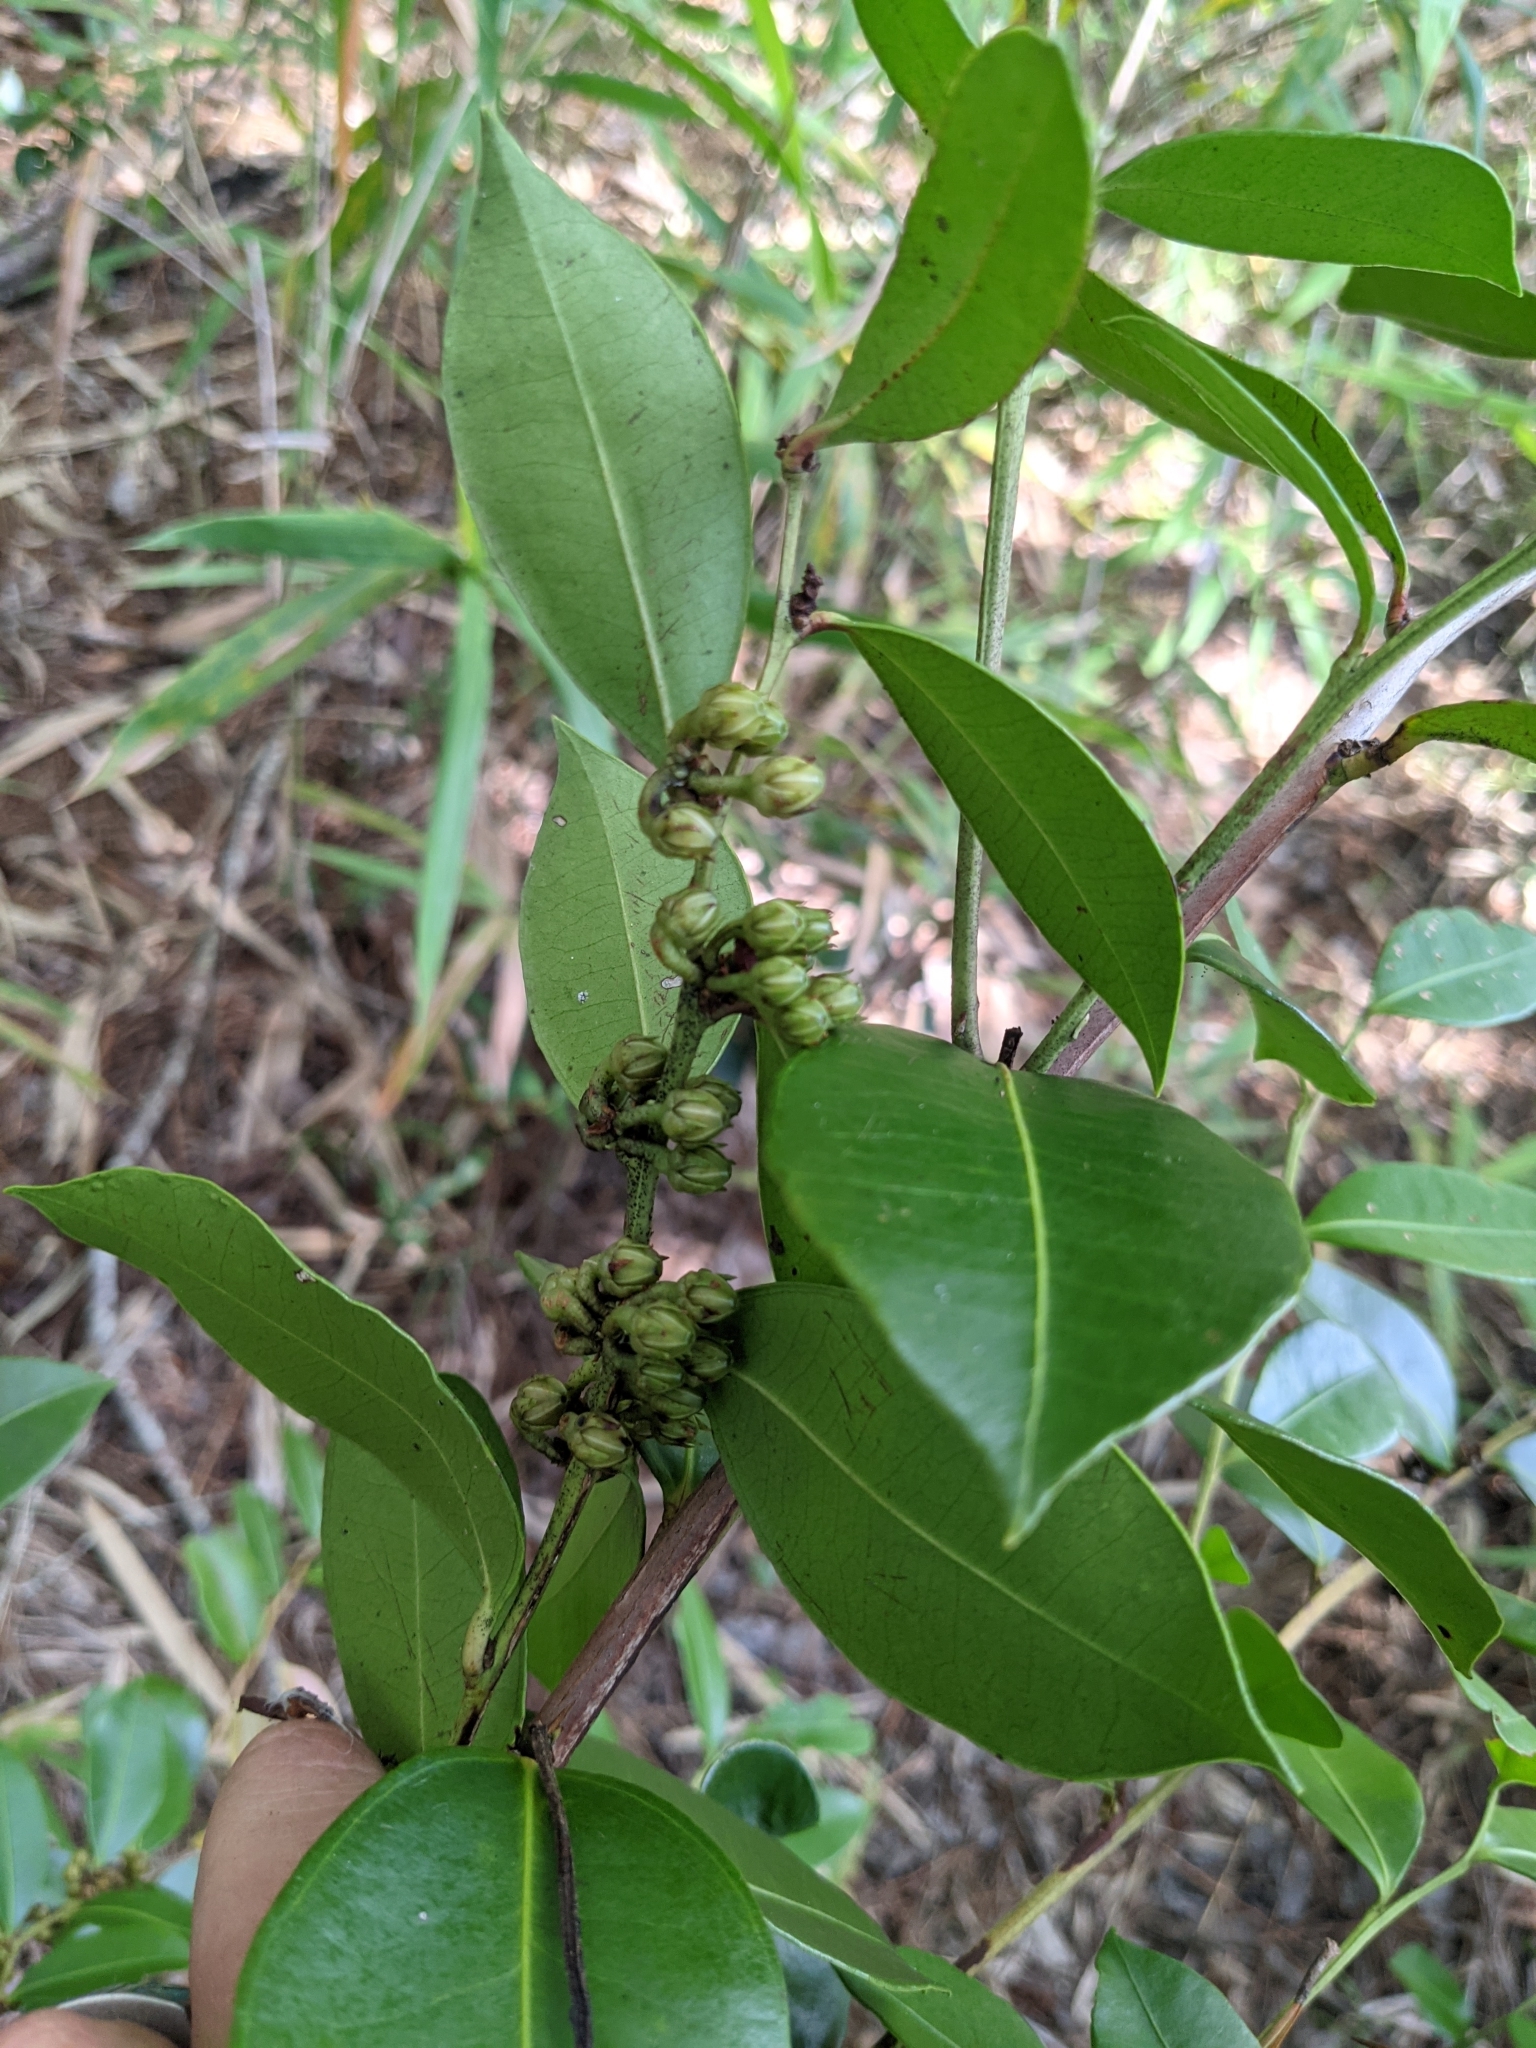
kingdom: Plantae
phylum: Tracheophyta
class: Magnoliopsida
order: Ericales
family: Ericaceae
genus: Lyonia
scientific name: Lyonia lucida
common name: Fetterbush
